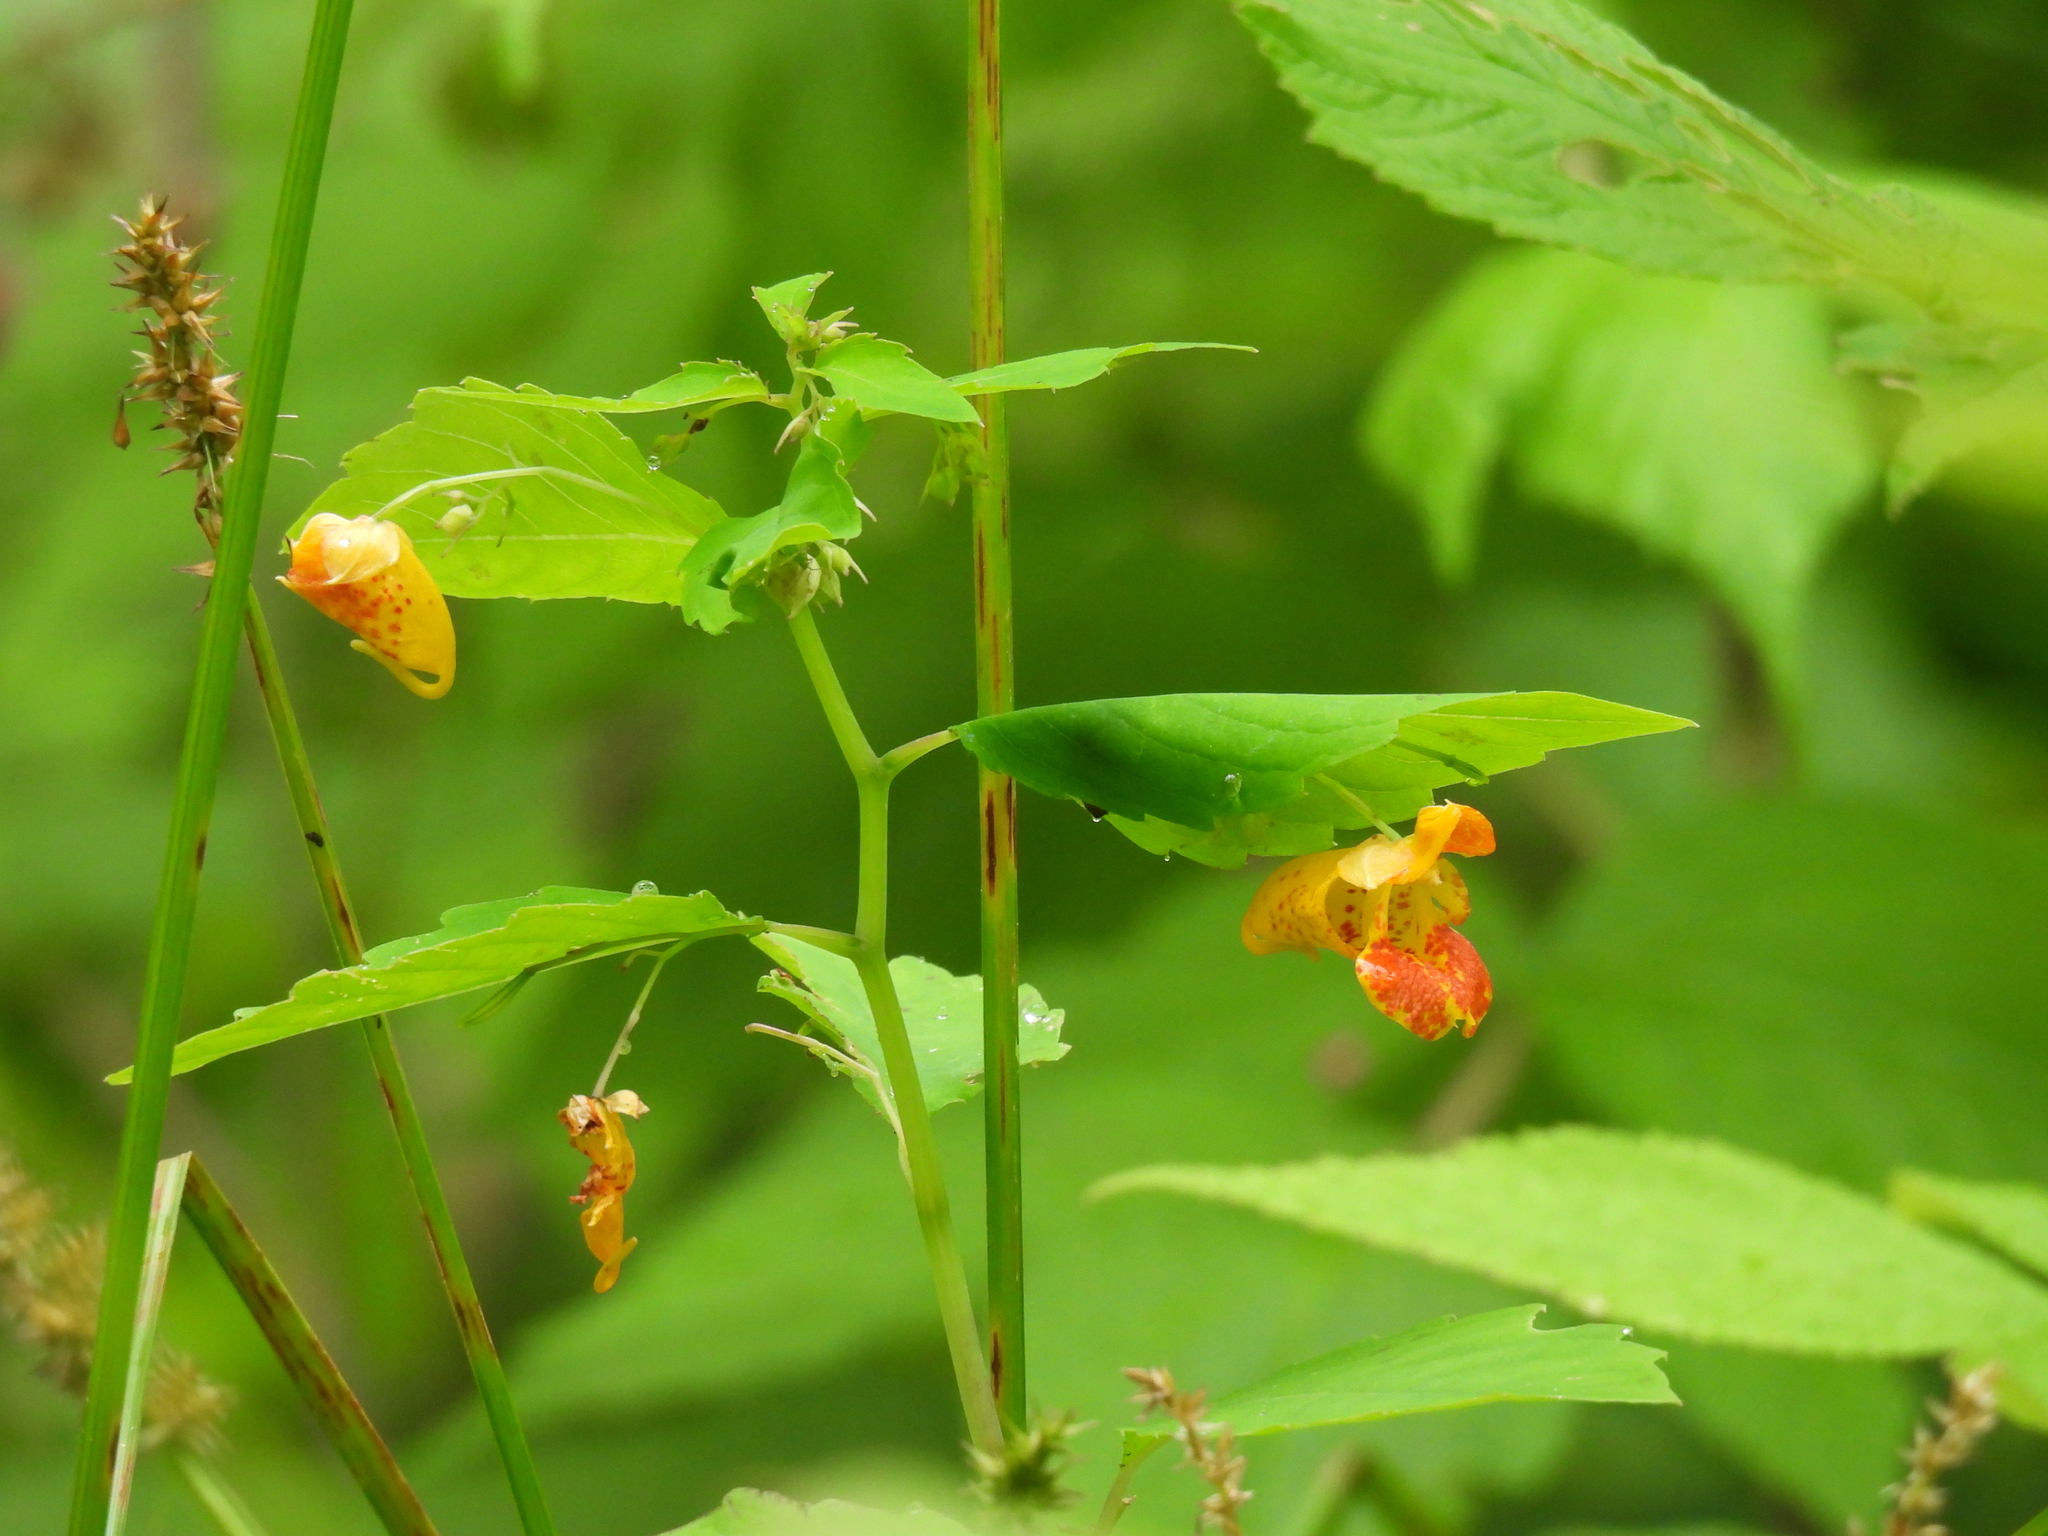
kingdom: Plantae
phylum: Tracheophyta
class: Magnoliopsida
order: Ericales
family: Balsaminaceae
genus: Impatiens
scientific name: Impatiens capensis
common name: Orange balsam
